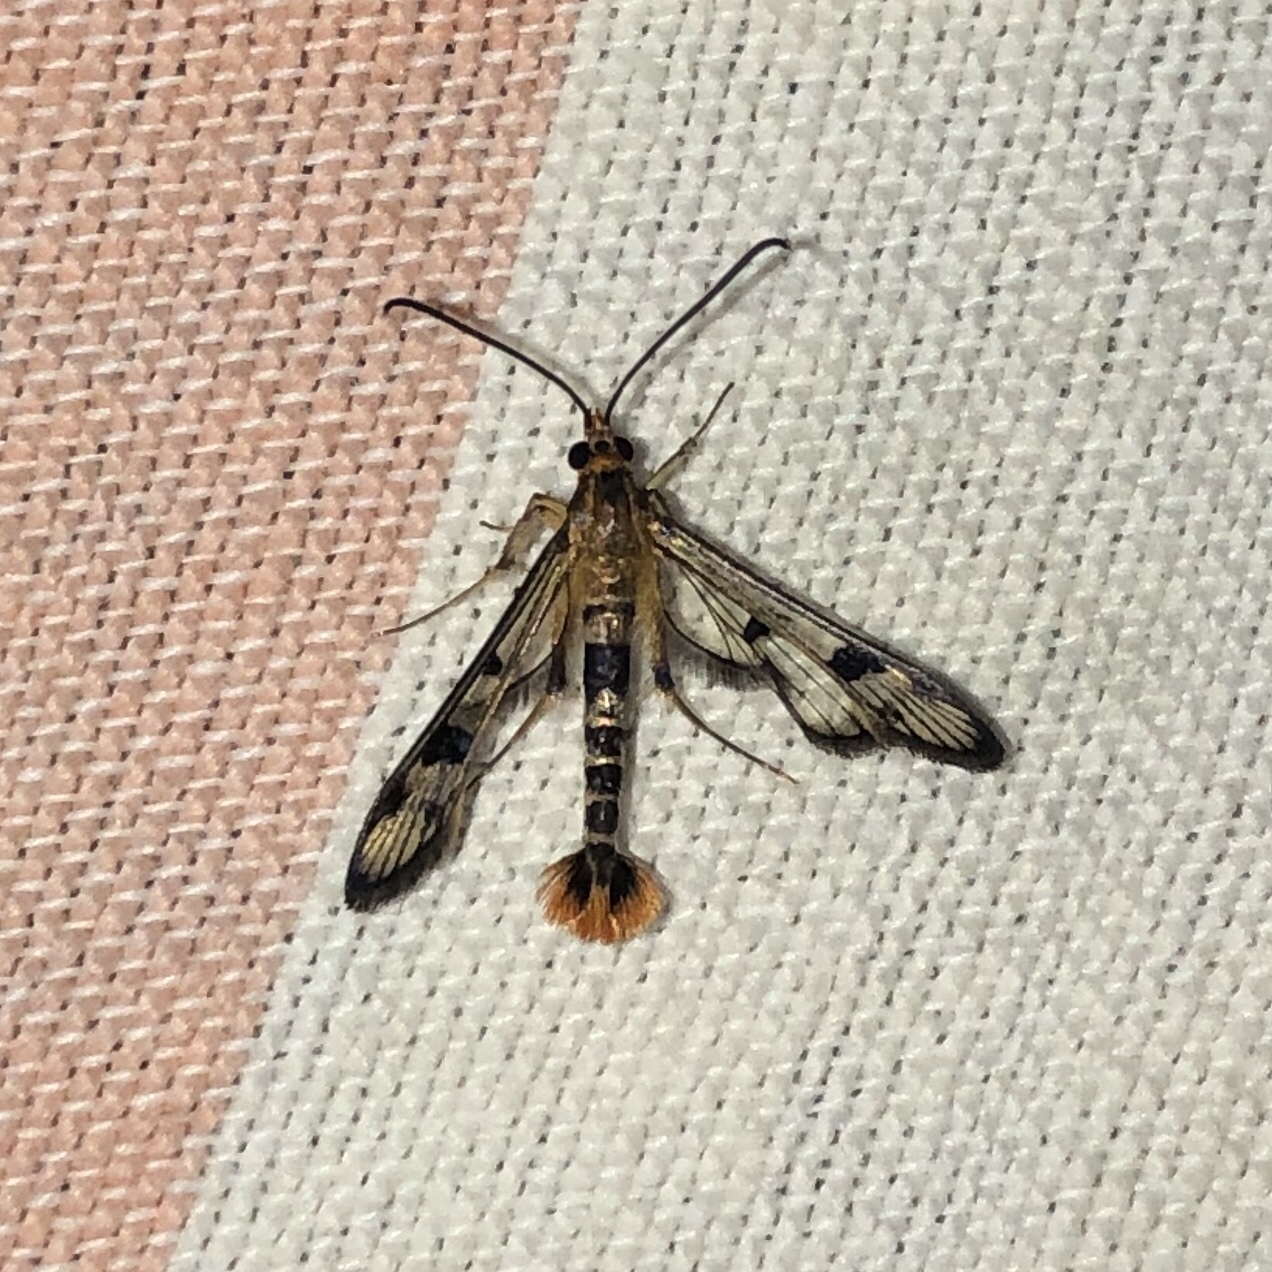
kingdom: Animalia
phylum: Arthropoda
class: Insecta
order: Lepidoptera
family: Sesiidae
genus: Synanthedon
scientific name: Synanthedon acerni
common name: Maple callus borer moth
